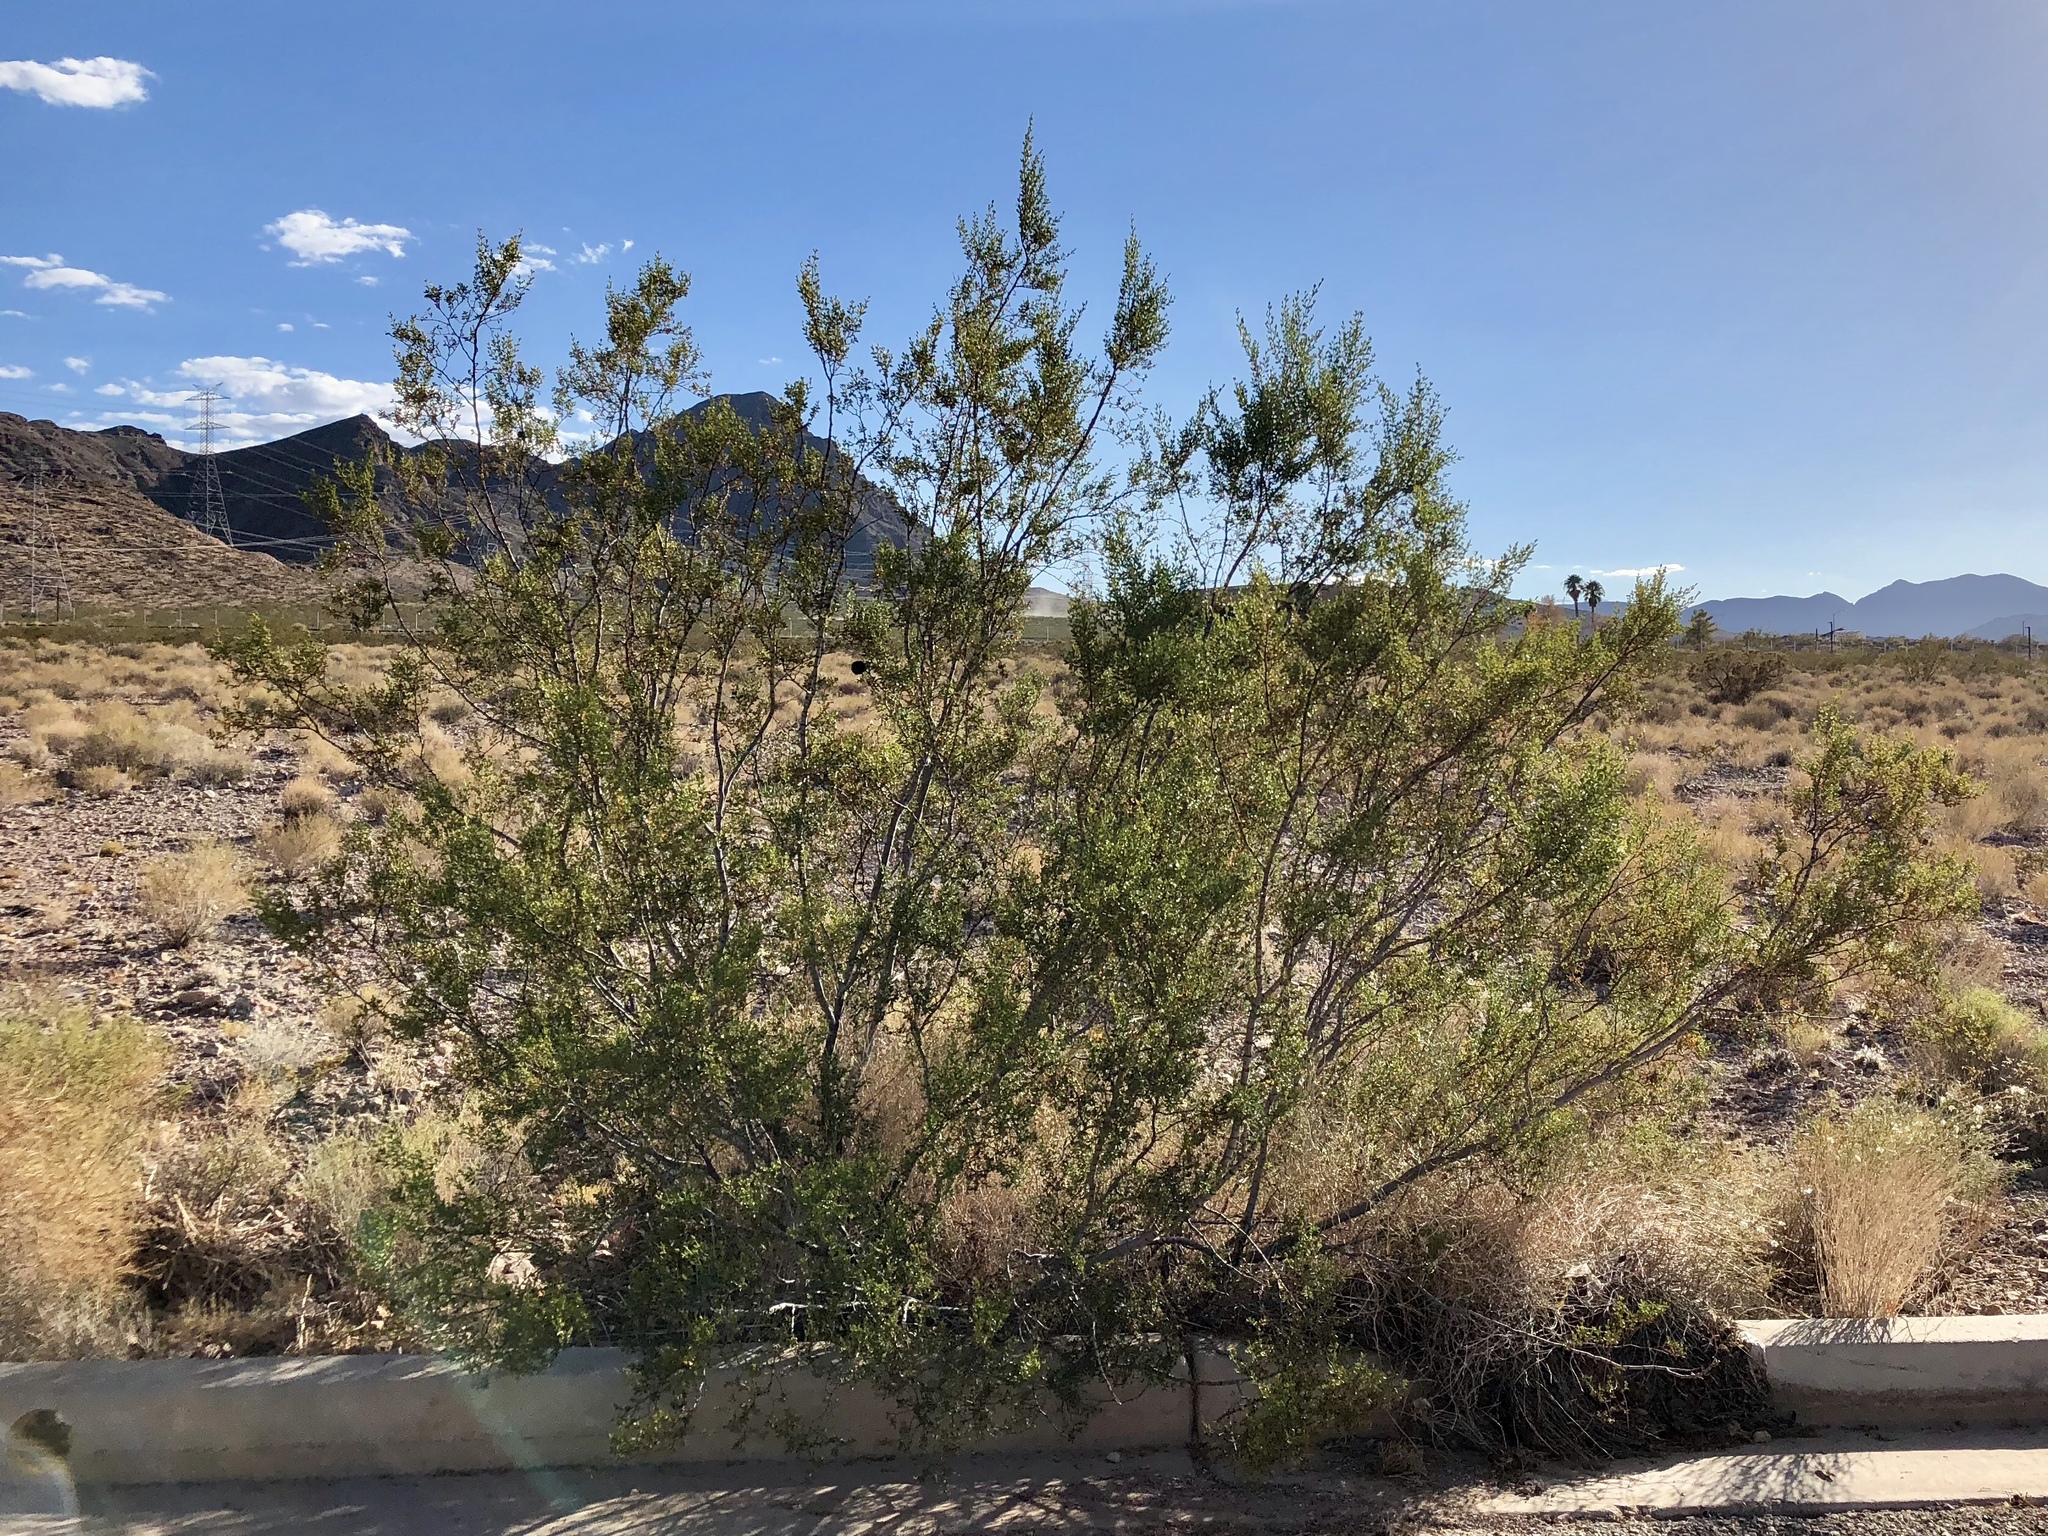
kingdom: Plantae
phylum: Tracheophyta
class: Magnoliopsida
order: Zygophyllales
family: Zygophyllaceae
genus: Larrea
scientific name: Larrea tridentata
